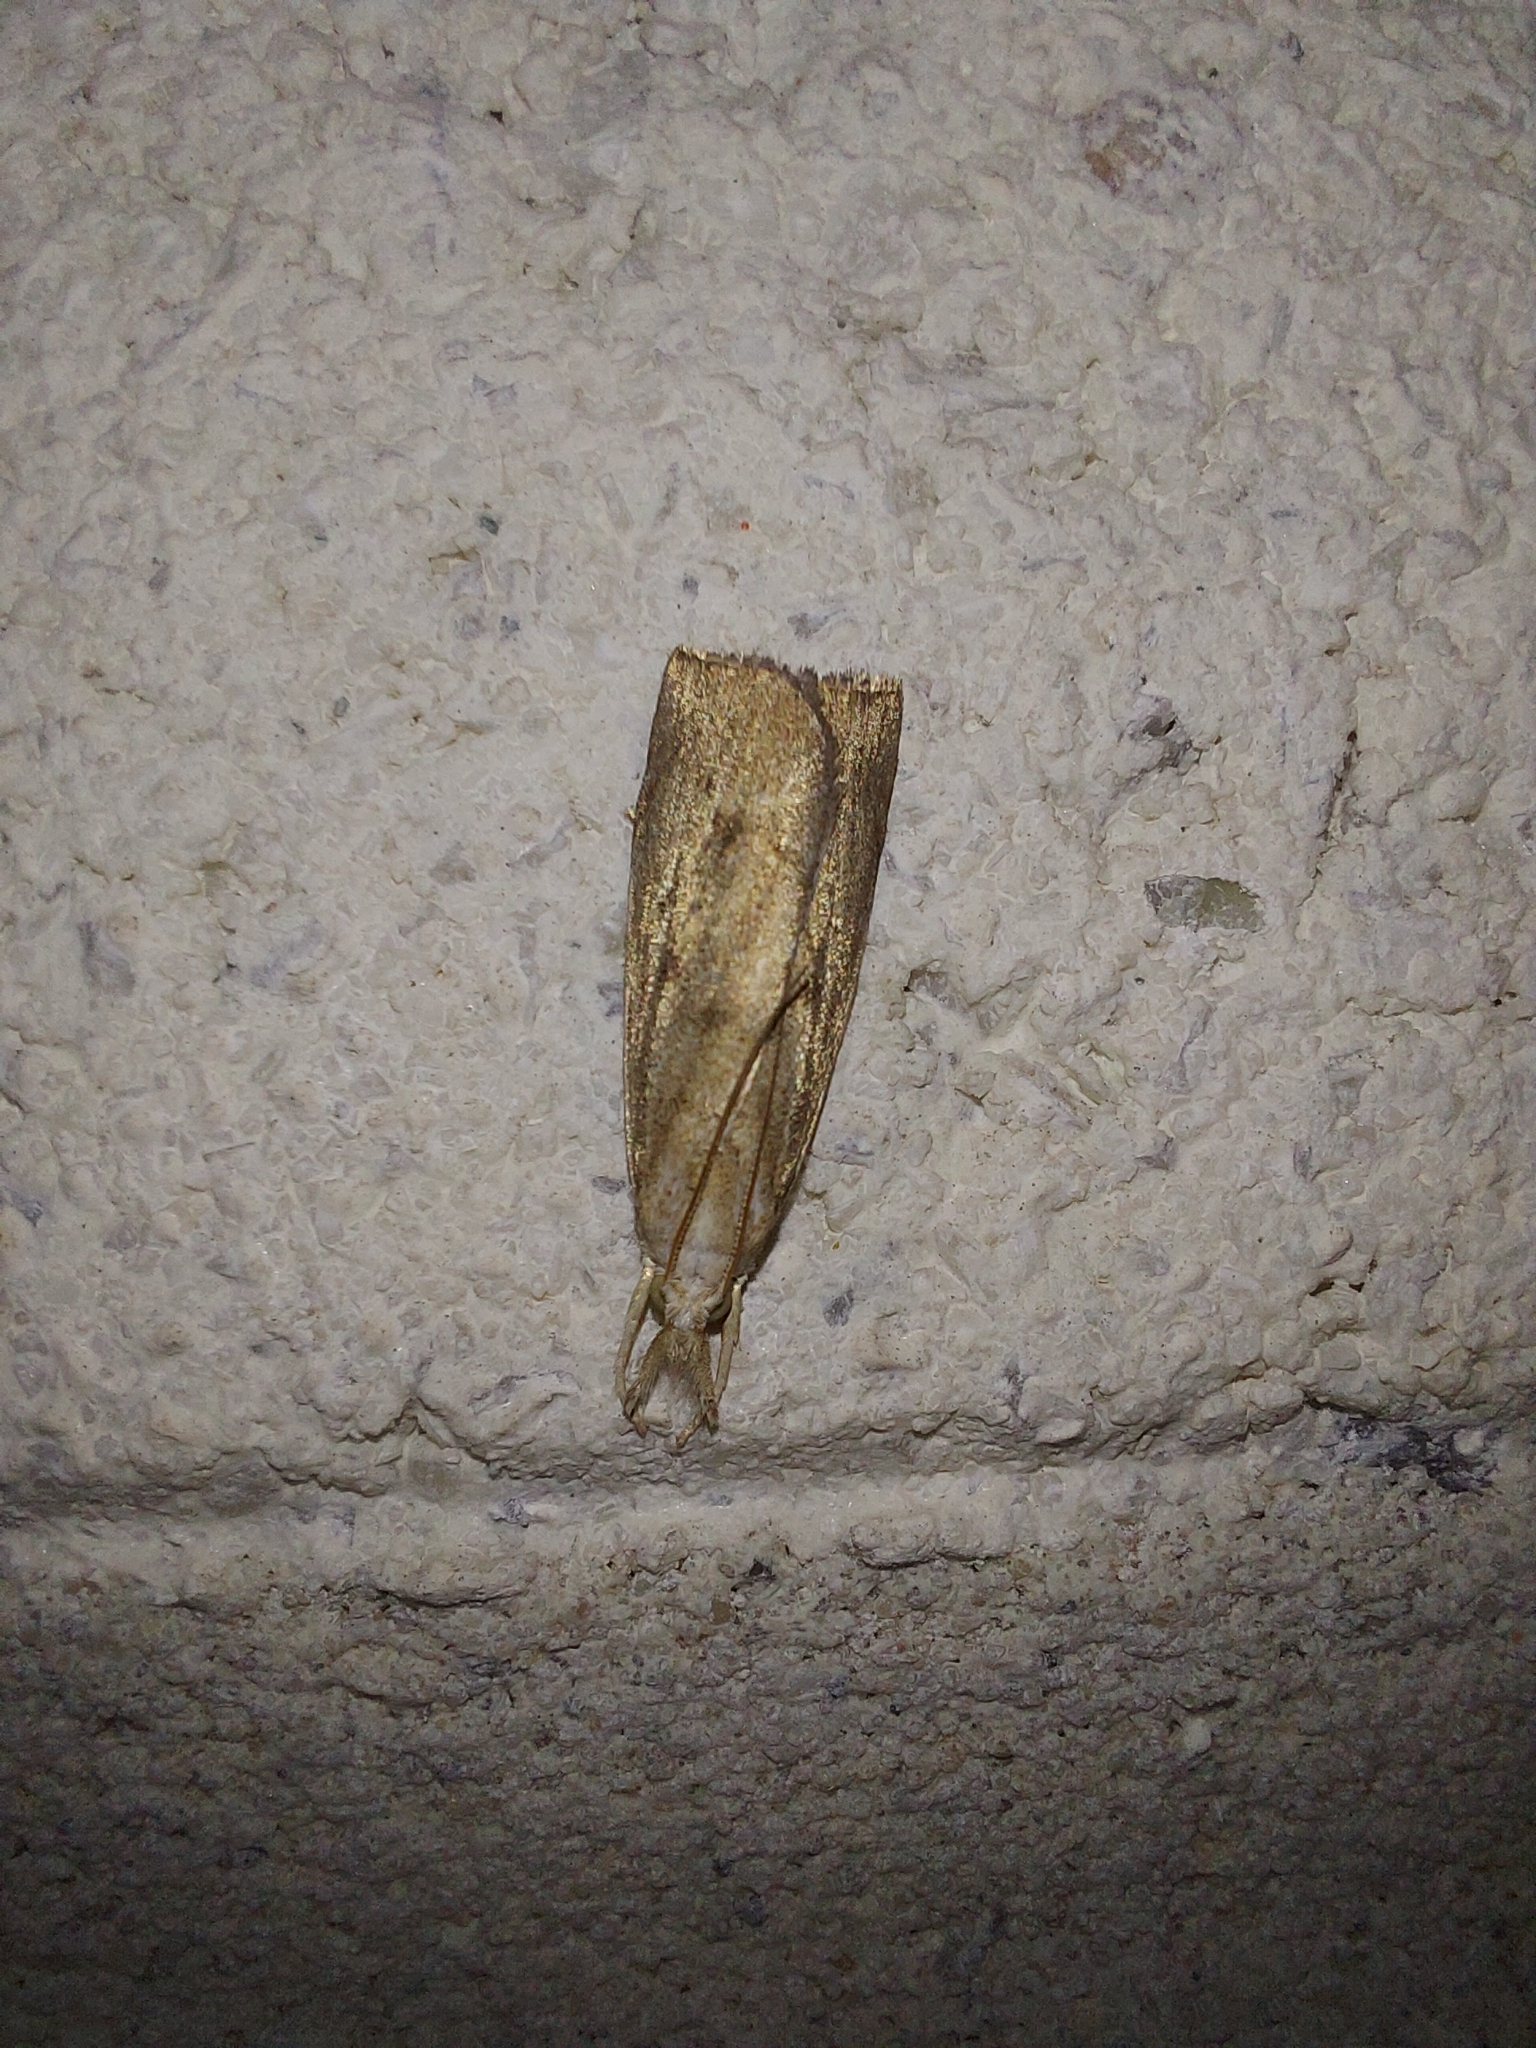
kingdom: Animalia
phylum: Arthropoda
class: Insecta
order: Lepidoptera
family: Crambidae
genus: Calamotropha
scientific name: Calamotropha paludella
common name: Bulrush veneer
